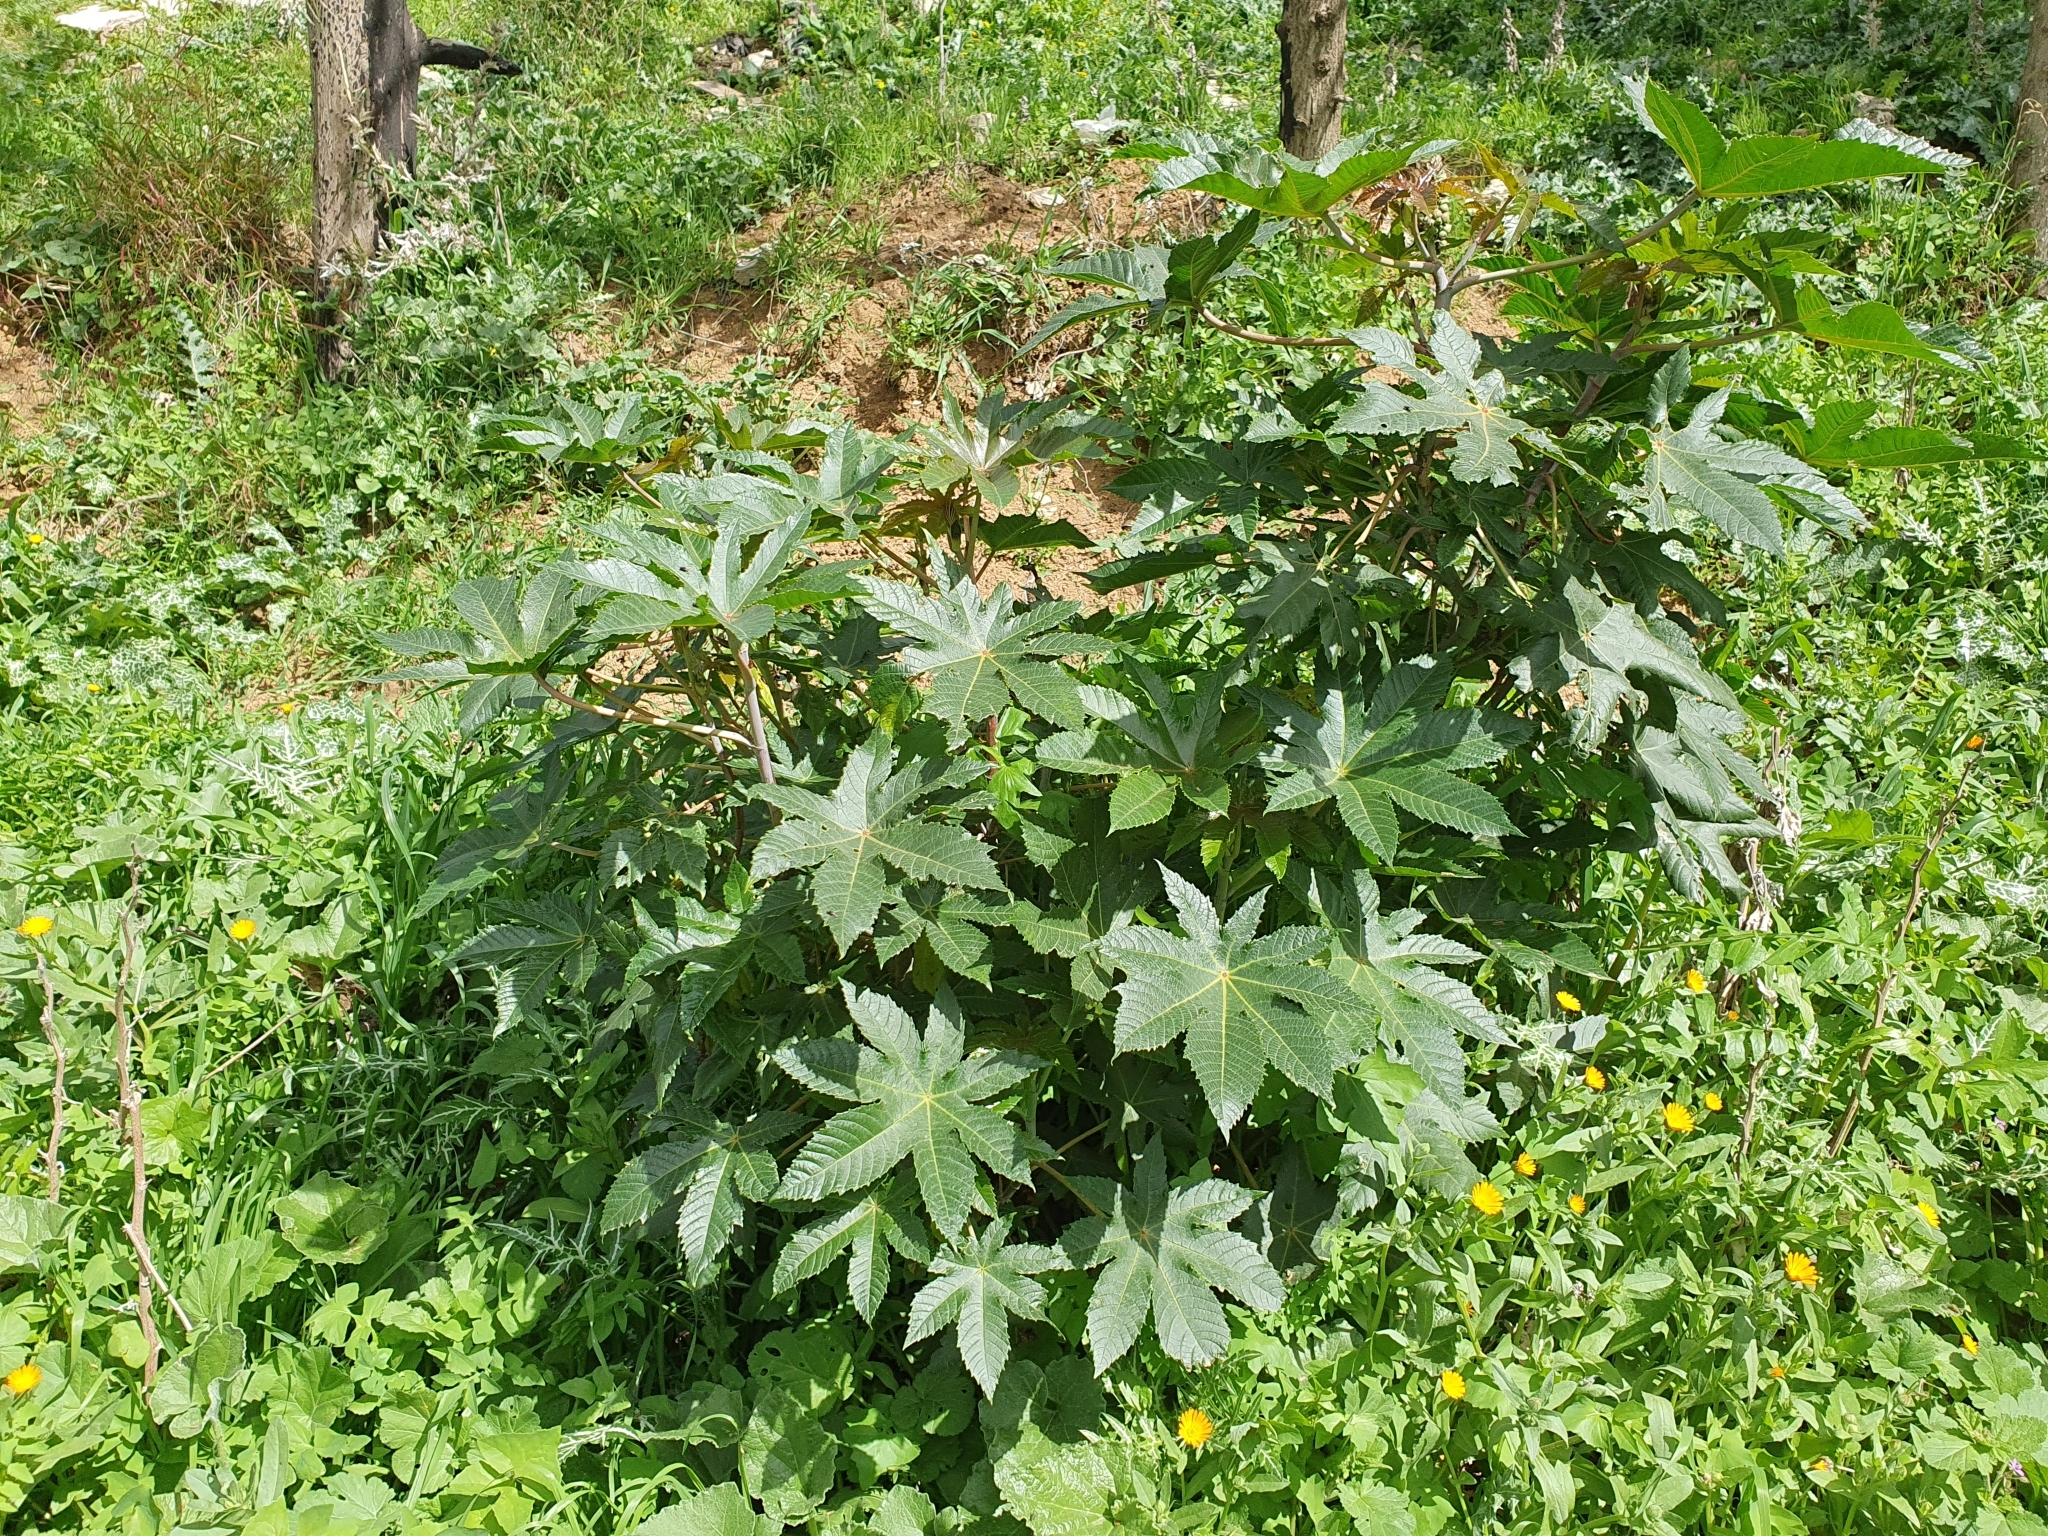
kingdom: Plantae
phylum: Tracheophyta
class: Magnoliopsida
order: Malpighiales
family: Euphorbiaceae
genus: Ricinus
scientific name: Ricinus communis
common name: Castor-oil-plant
